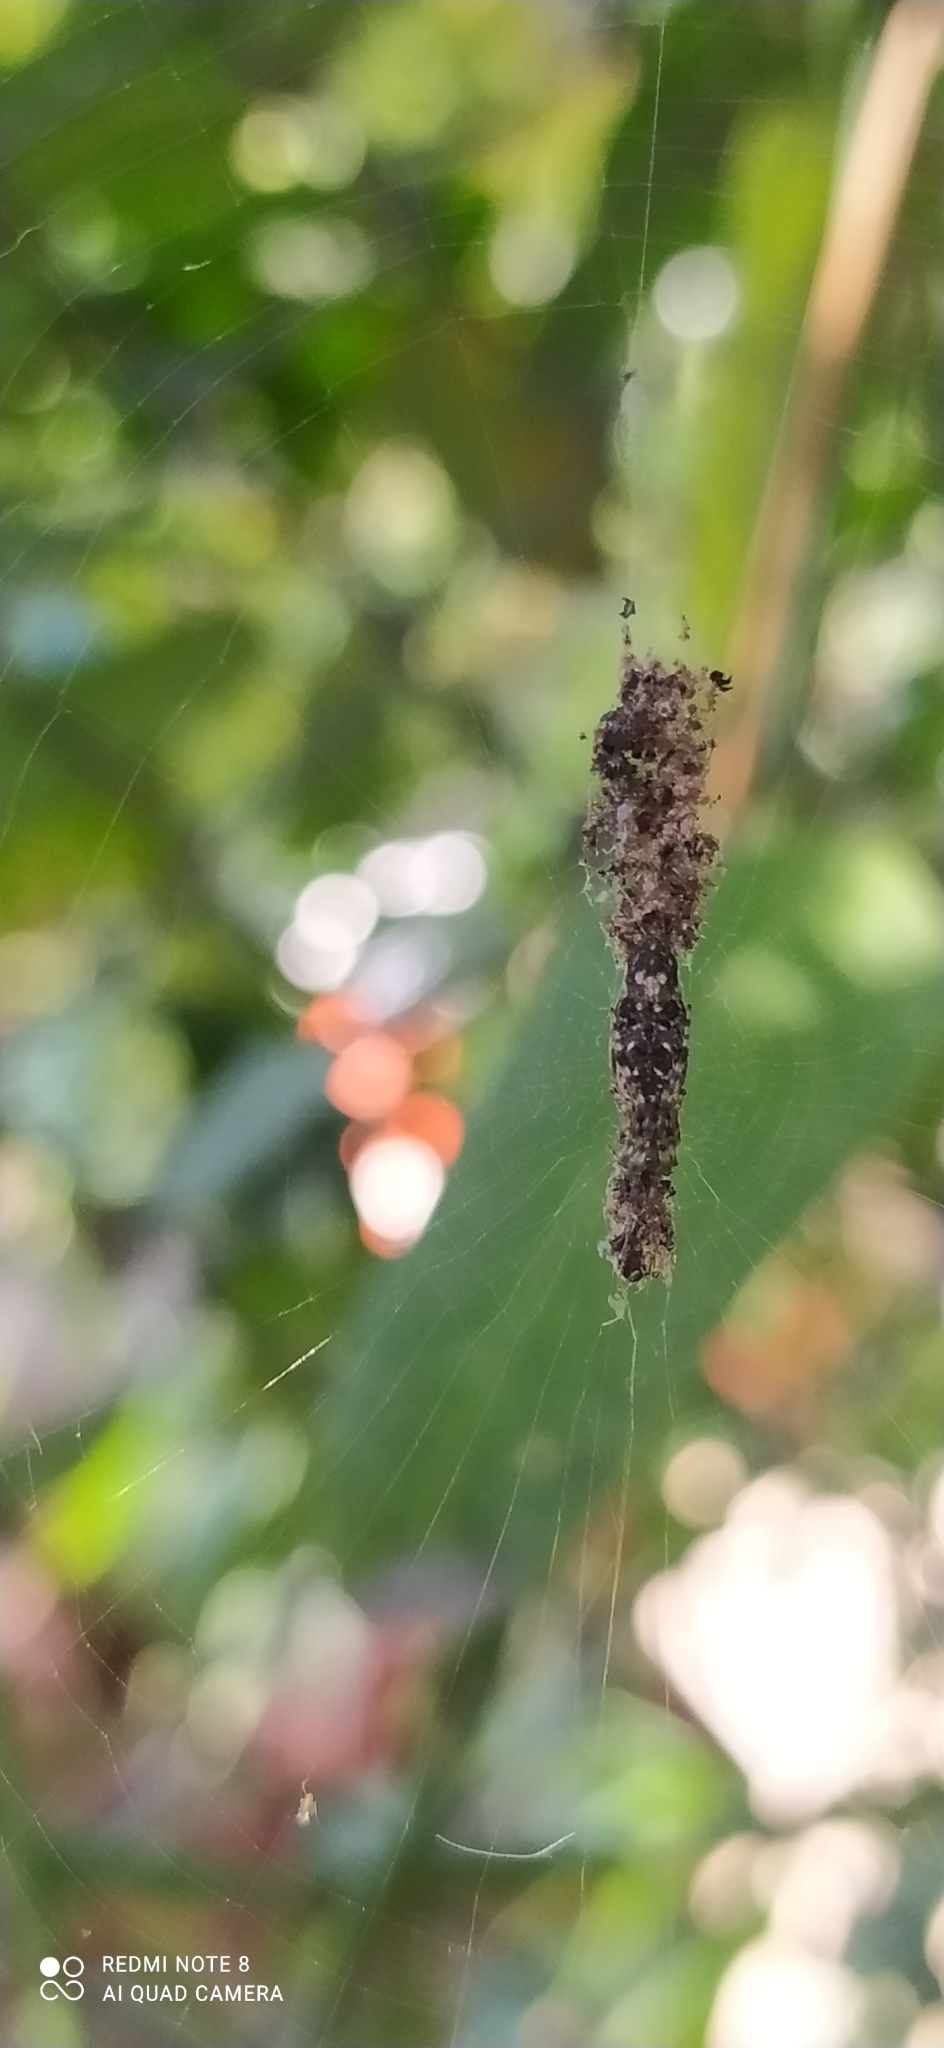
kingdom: Animalia
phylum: Arthropoda
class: Arachnida
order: Araneae
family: Araneidae
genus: Cyclosa
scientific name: Cyclosa machadinho
